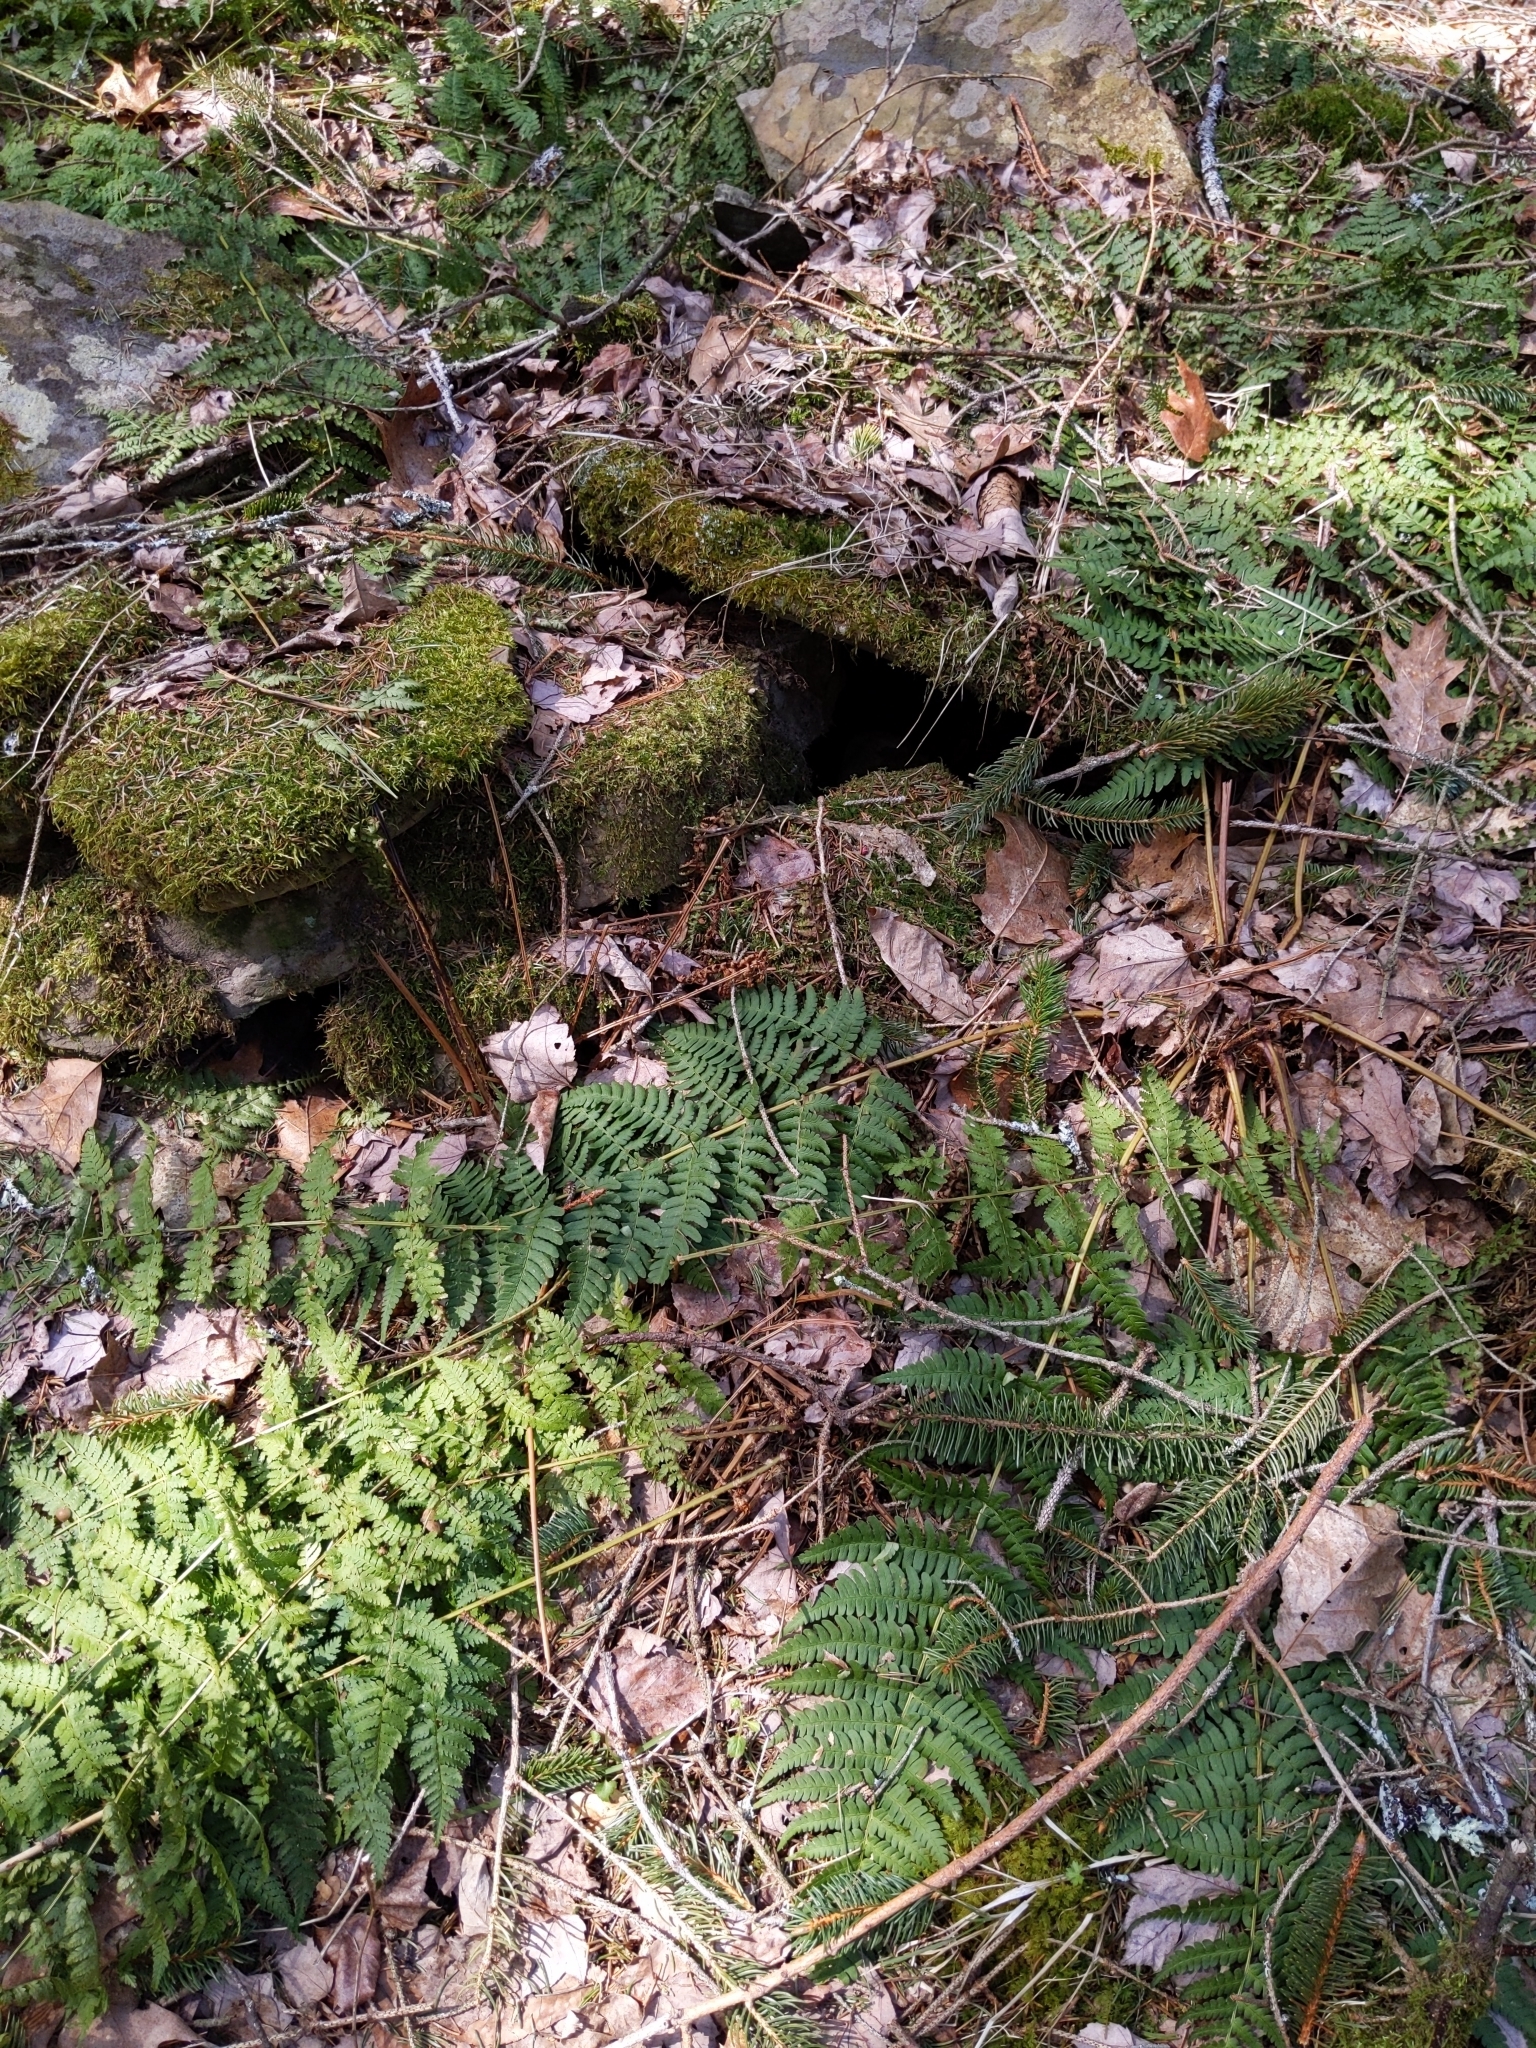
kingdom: Plantae
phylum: Tracheophyta
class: Polypodiopsida
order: Polypodiales
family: Dryopteridaceae
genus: Dryopteris
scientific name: Dryopteris intermedia
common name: Evergreen wood fern
